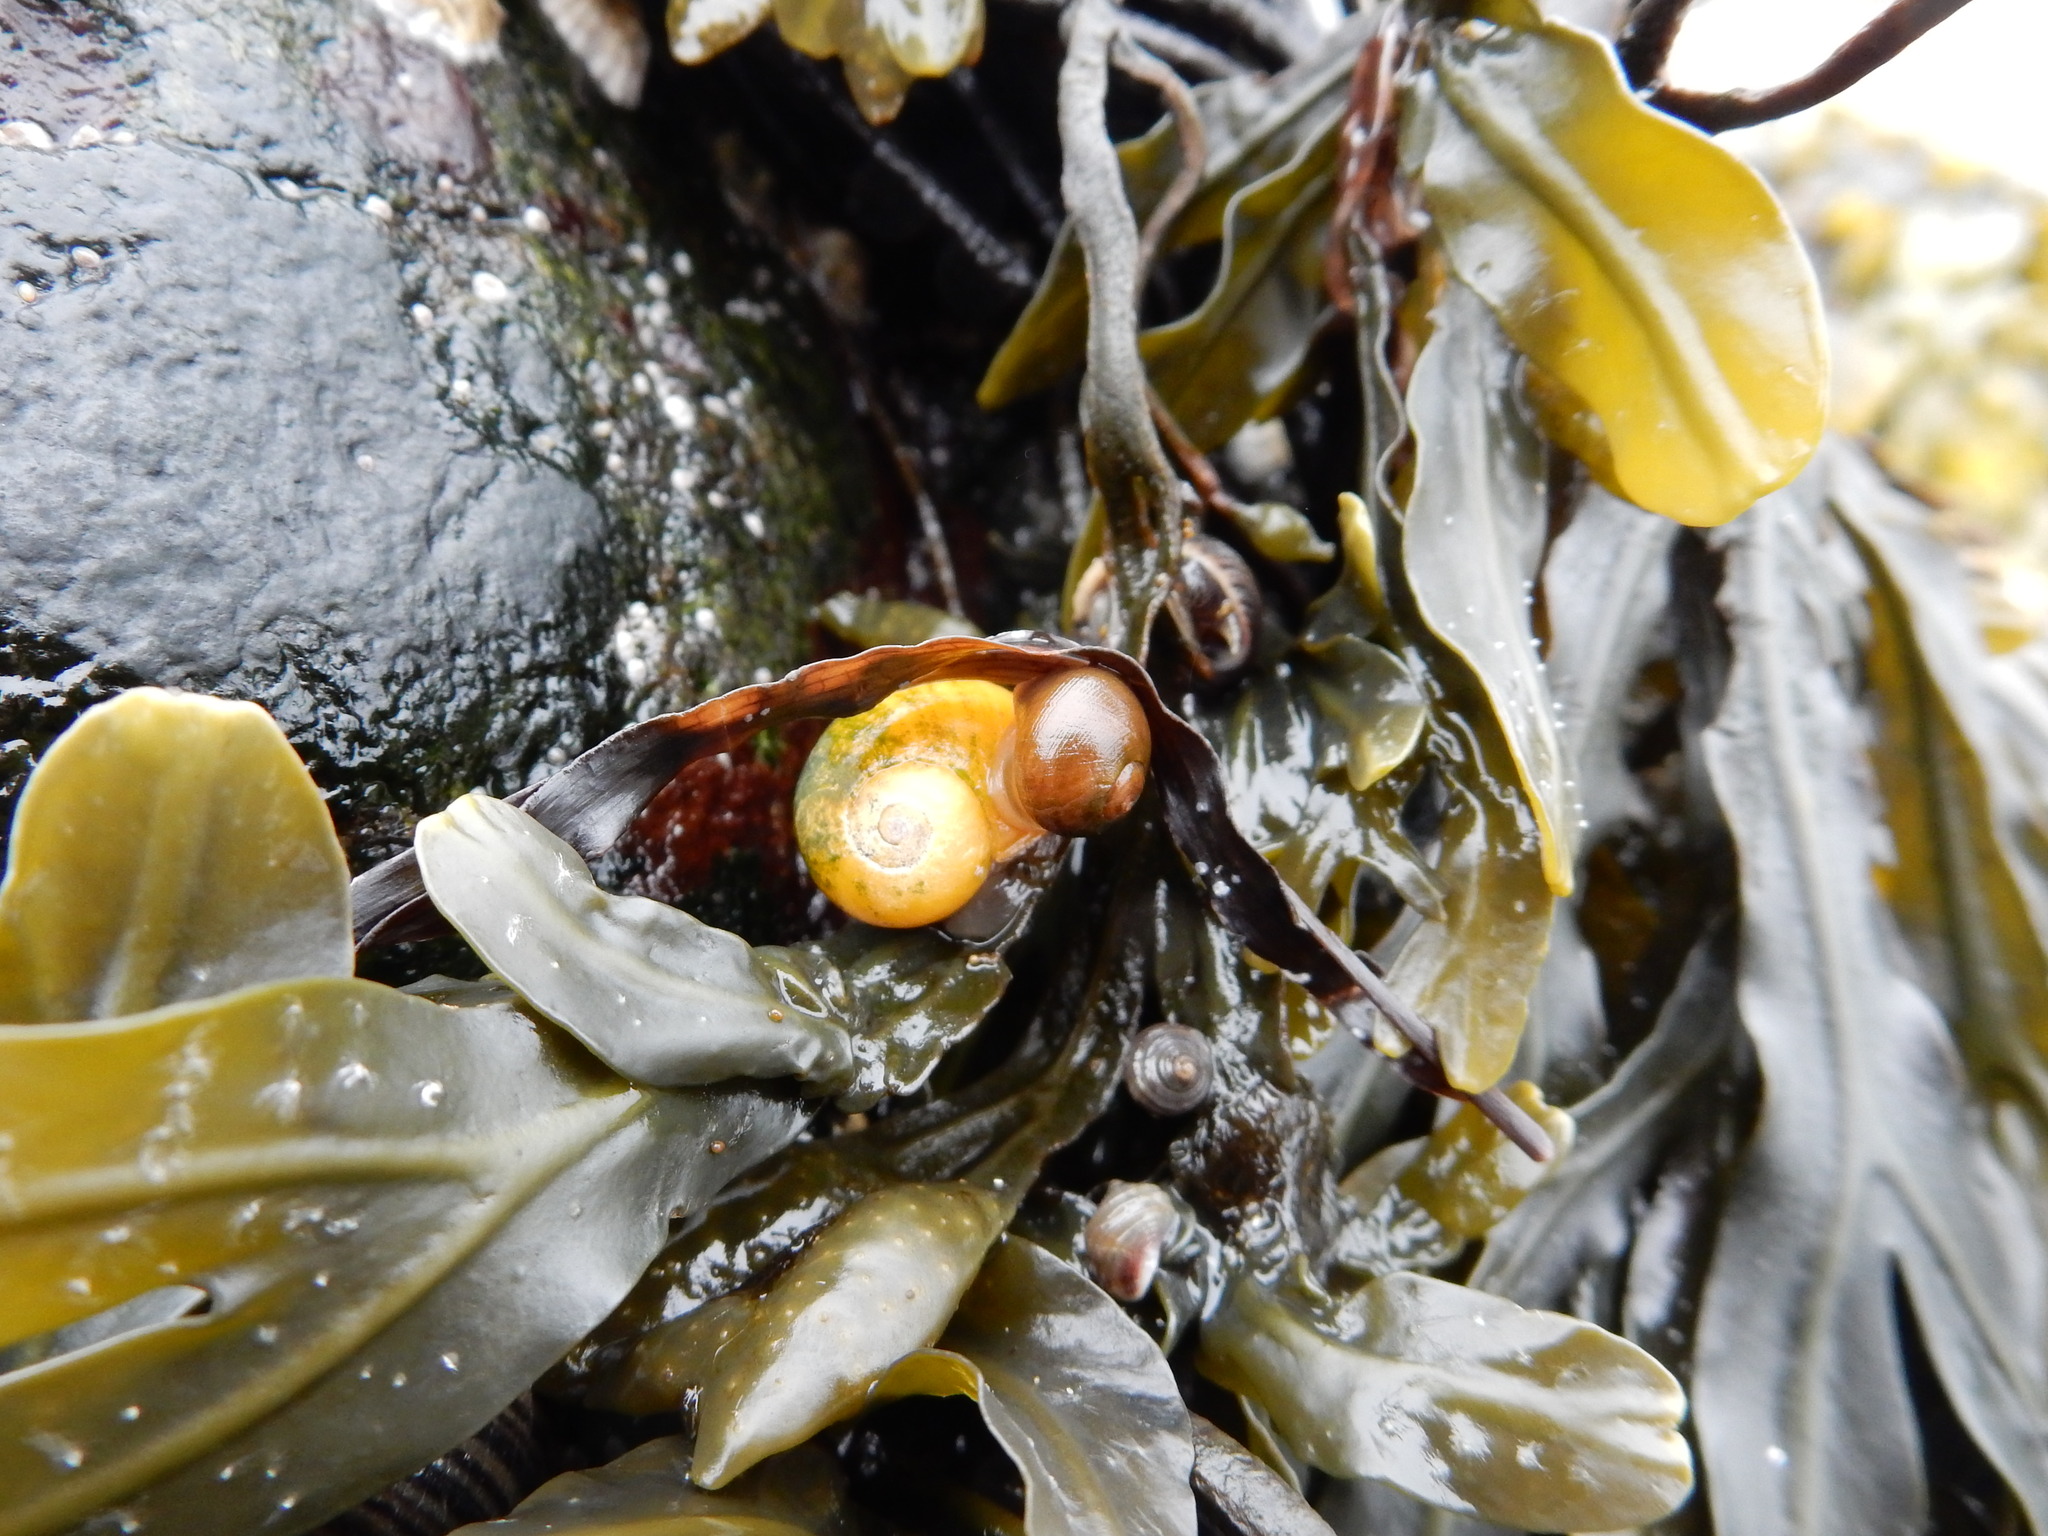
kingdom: Animalia
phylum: Mollusca
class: Gastropoda
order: Littorinimorpha
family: Littorinidae
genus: Littorina
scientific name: Littorina obtusata
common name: Flat periwinkle
